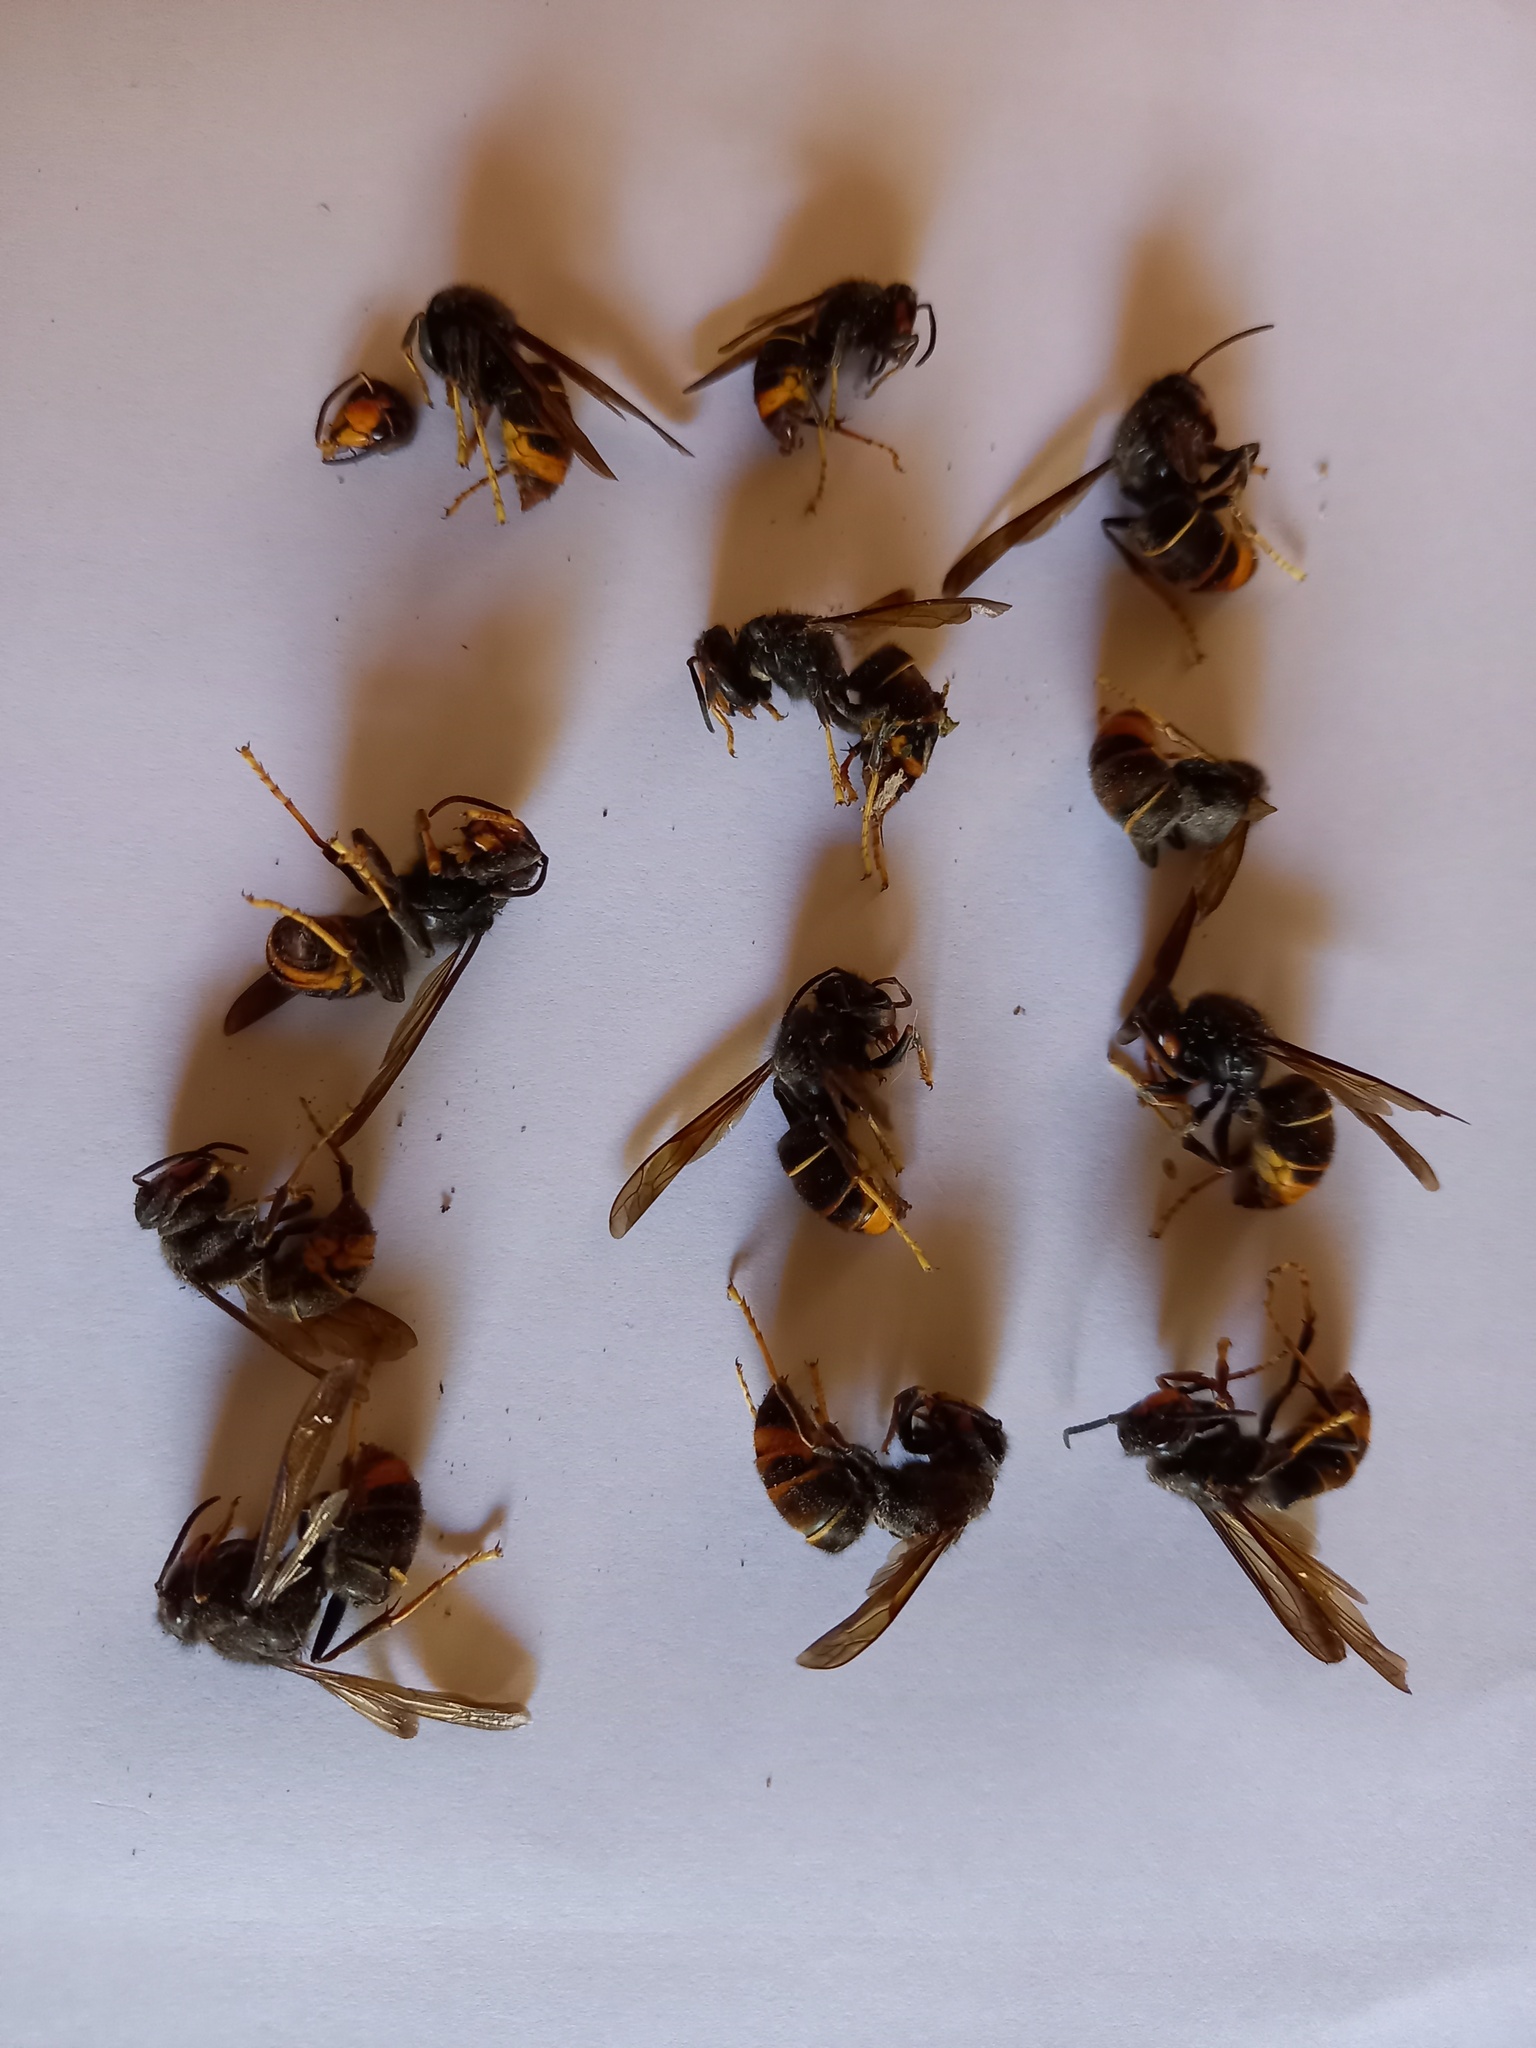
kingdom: Animalia
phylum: Arthropoda
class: Insecta
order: Hymenoptera
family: Vespidae
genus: Vespa
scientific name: Vespa velutina
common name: Asian hornet
